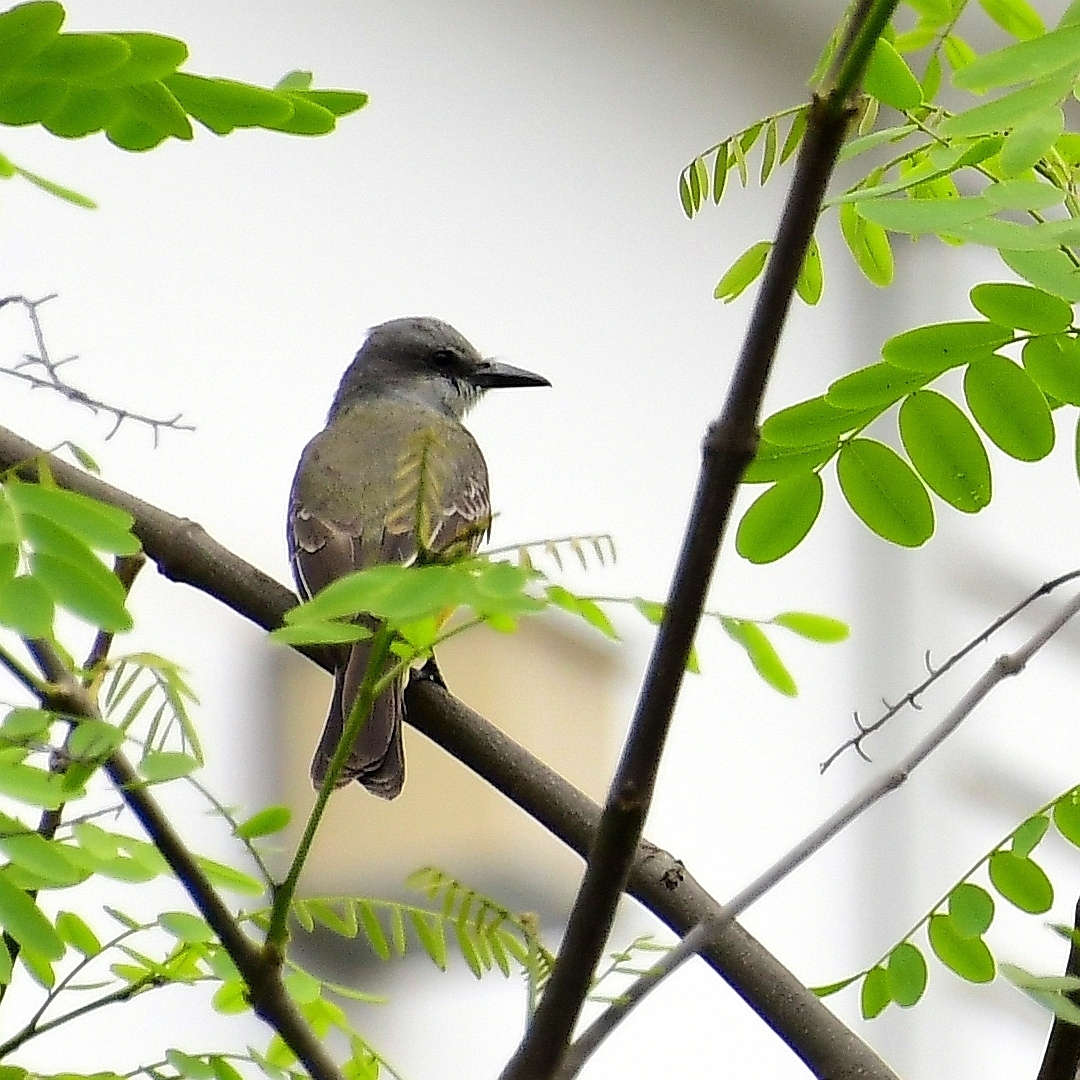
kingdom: Animalia
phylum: Chordata
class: Aves
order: Passeriformes
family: Tyrannidae
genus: Tyrannus
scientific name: Tyrannus melancholicus
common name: Tropical kingbird
